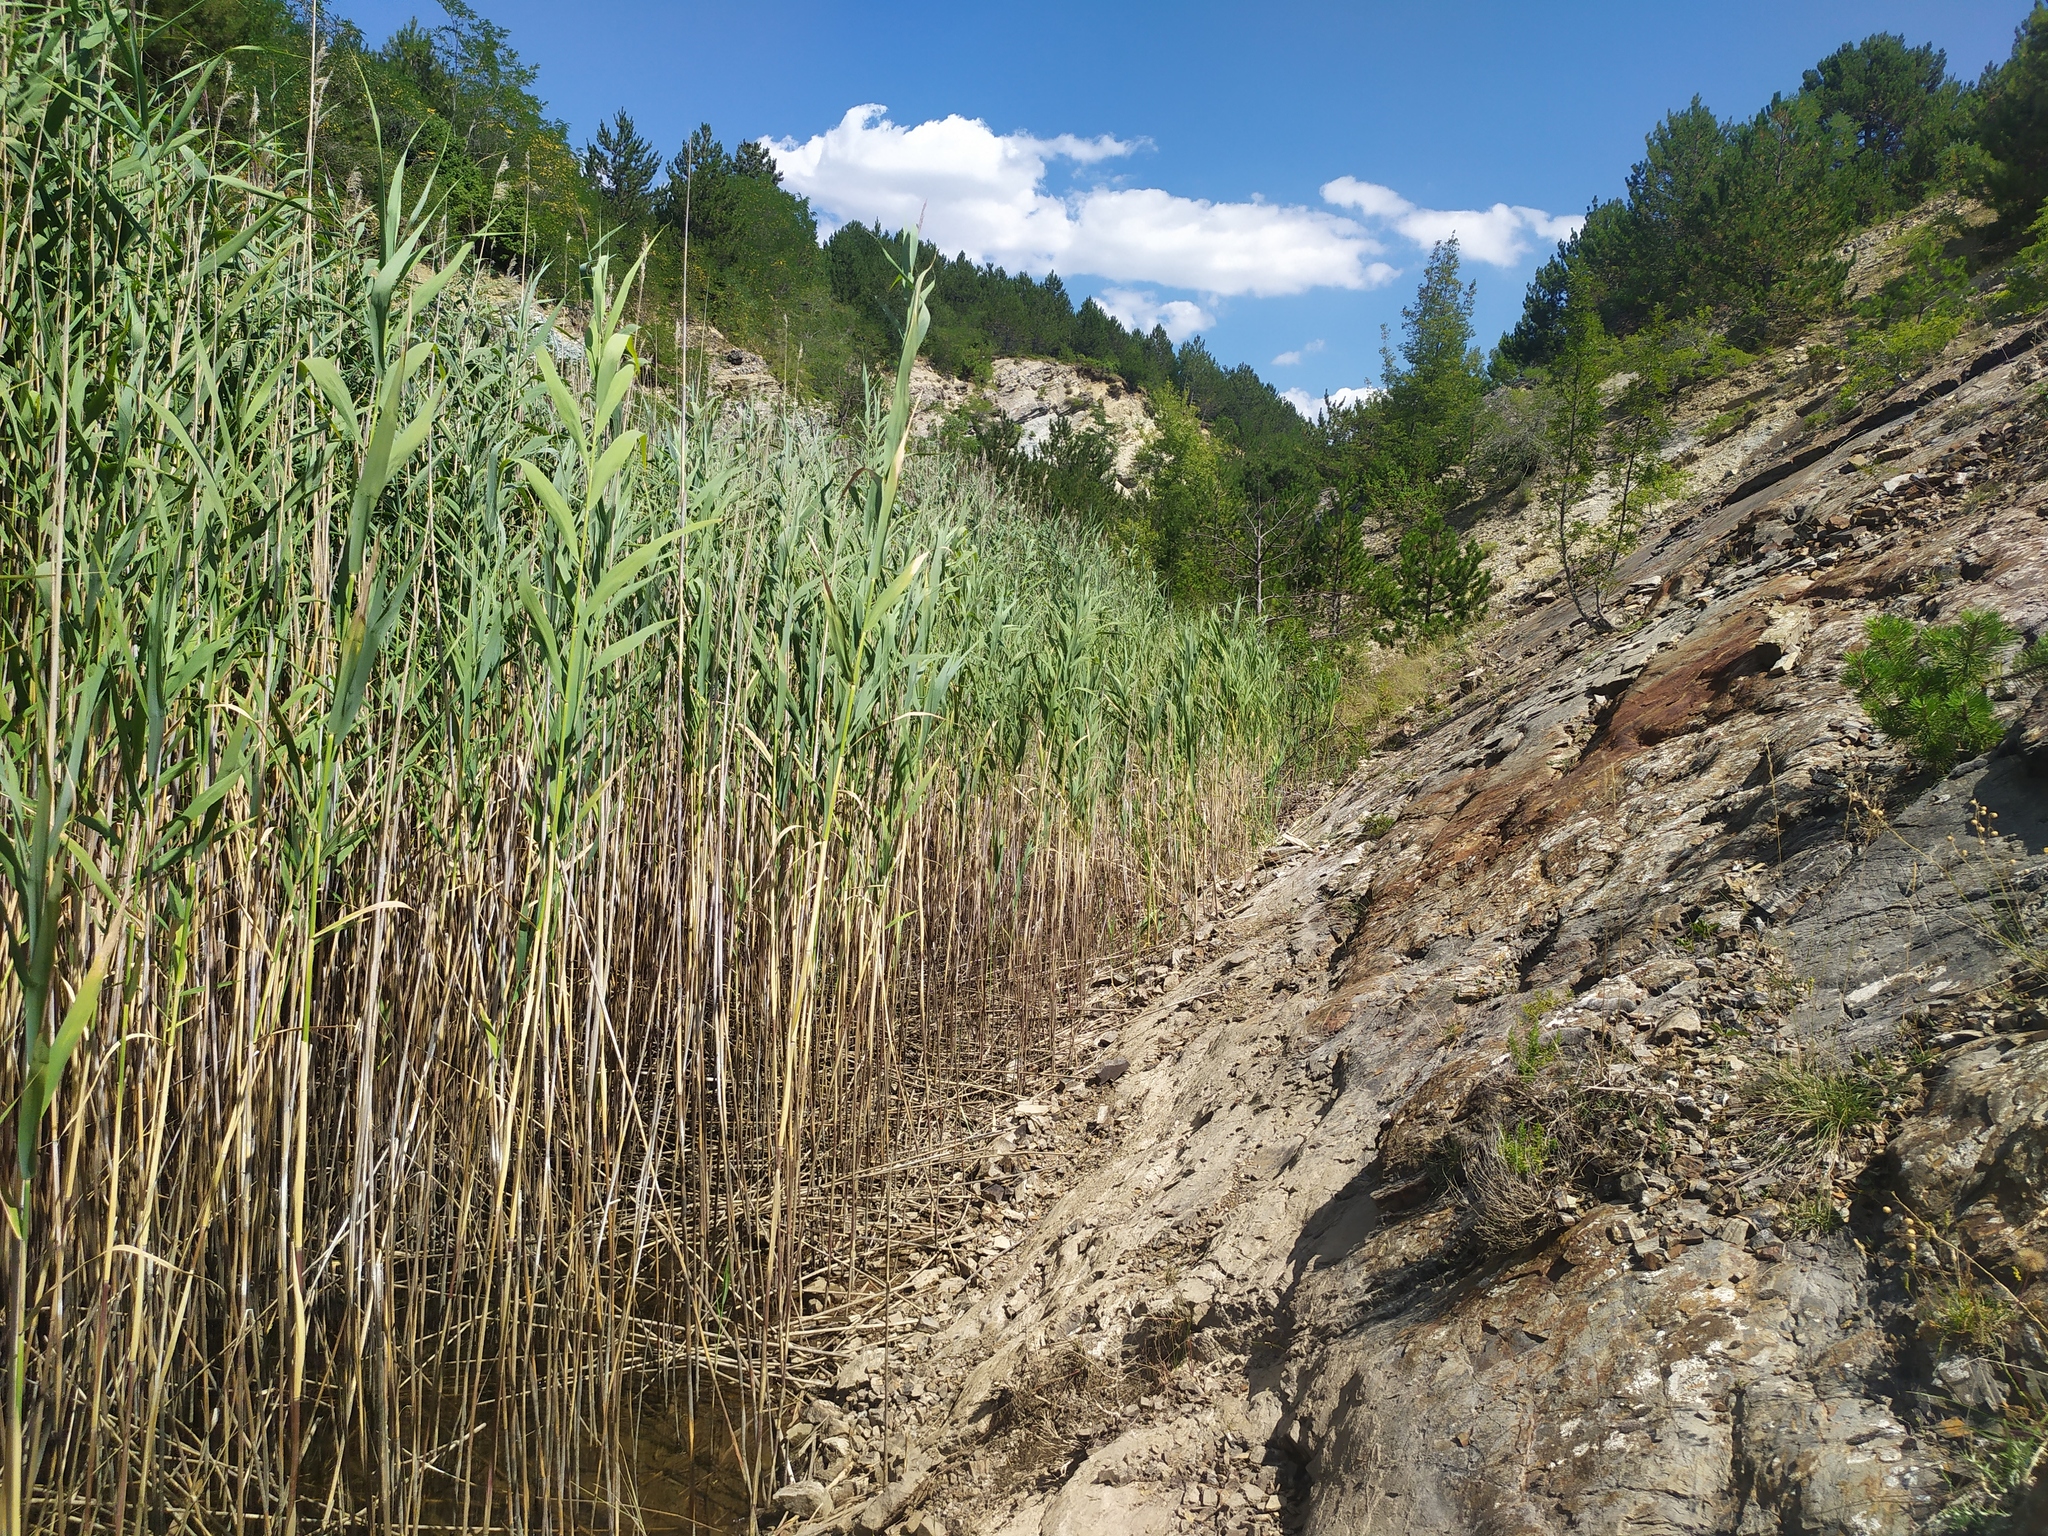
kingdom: Plantae
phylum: Tracheophyta
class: Liliopsida
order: Poales
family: Poaceae
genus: Phragmites
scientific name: Phragmites australis
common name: Common reed
